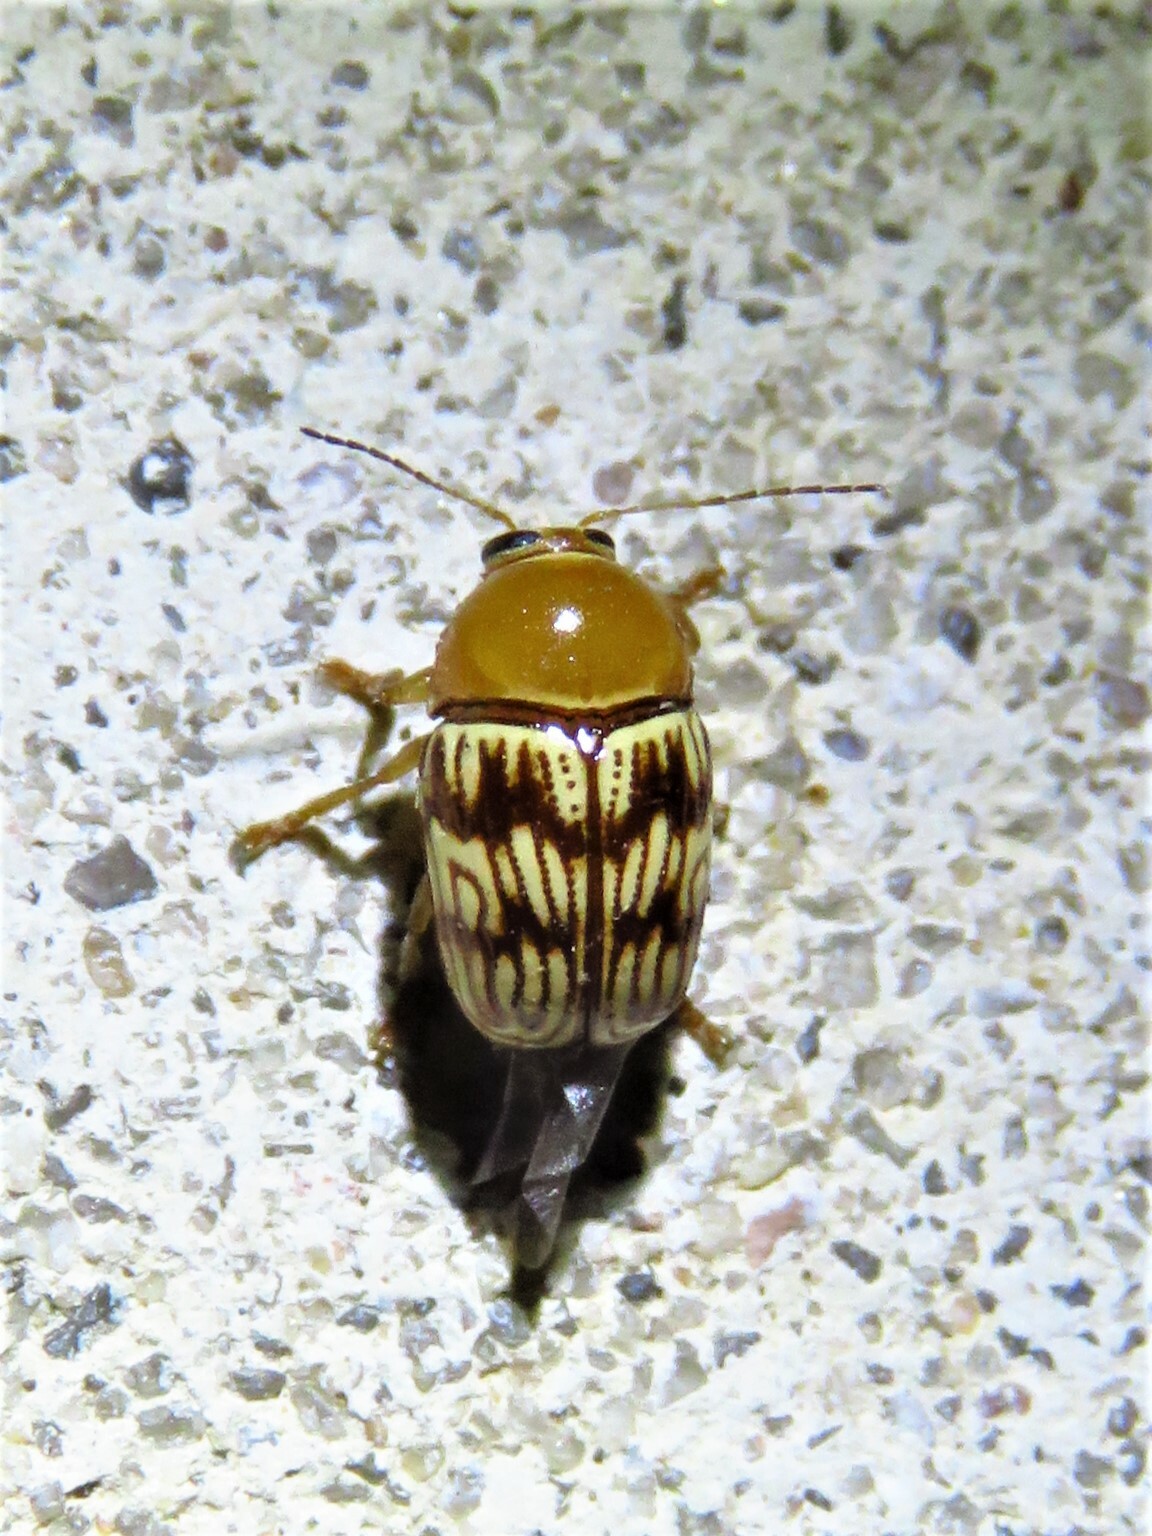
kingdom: Animalia
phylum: Arthropoda
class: Insecta
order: Coleoptera
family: Chrysomelidae
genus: Cryptocephalus
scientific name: Cryptocephalus fulguratus
